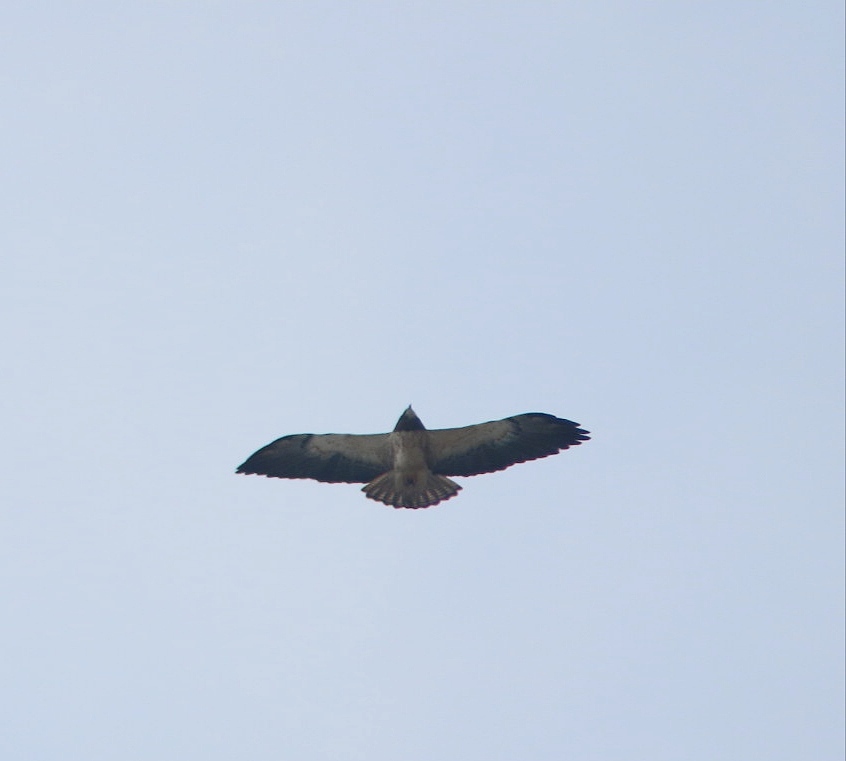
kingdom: Animalia
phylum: Chordata
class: Aves
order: Accipitriformes
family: Accipitridae
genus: Buteo
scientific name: Buteo swainsoni
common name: Swainson's hawk
